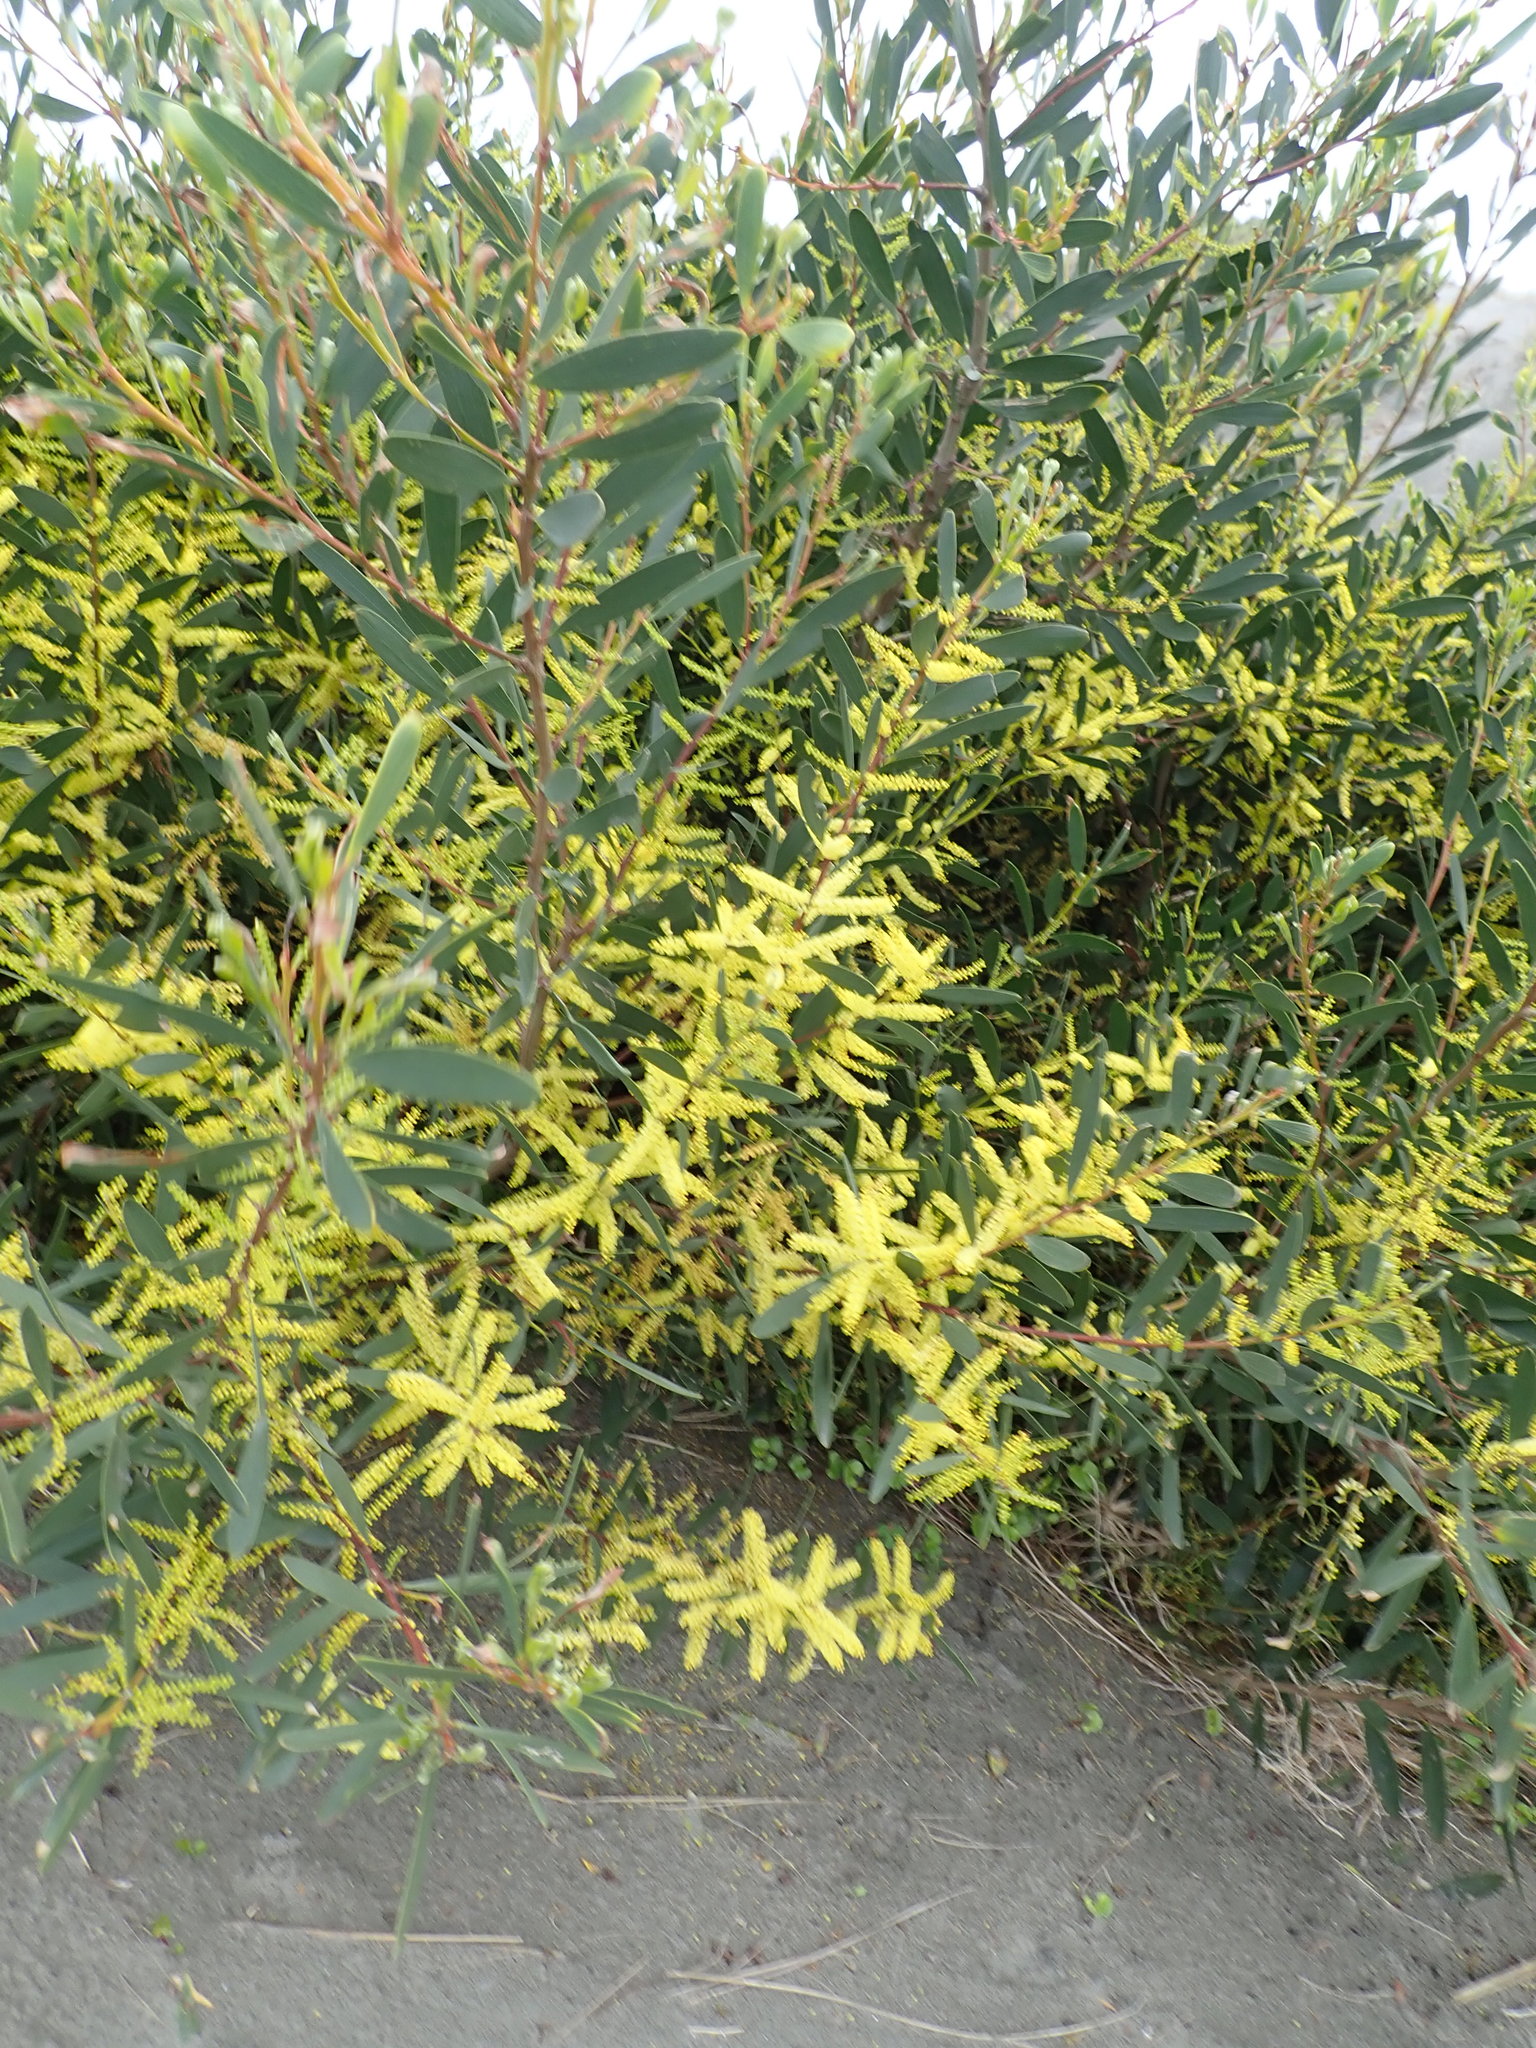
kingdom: Plantae
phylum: Tracheophyta
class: Magnoliopsida
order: Fabales
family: Fabaceae
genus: Acacia
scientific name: Acacia longifolia
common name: Sydney golden wattle
